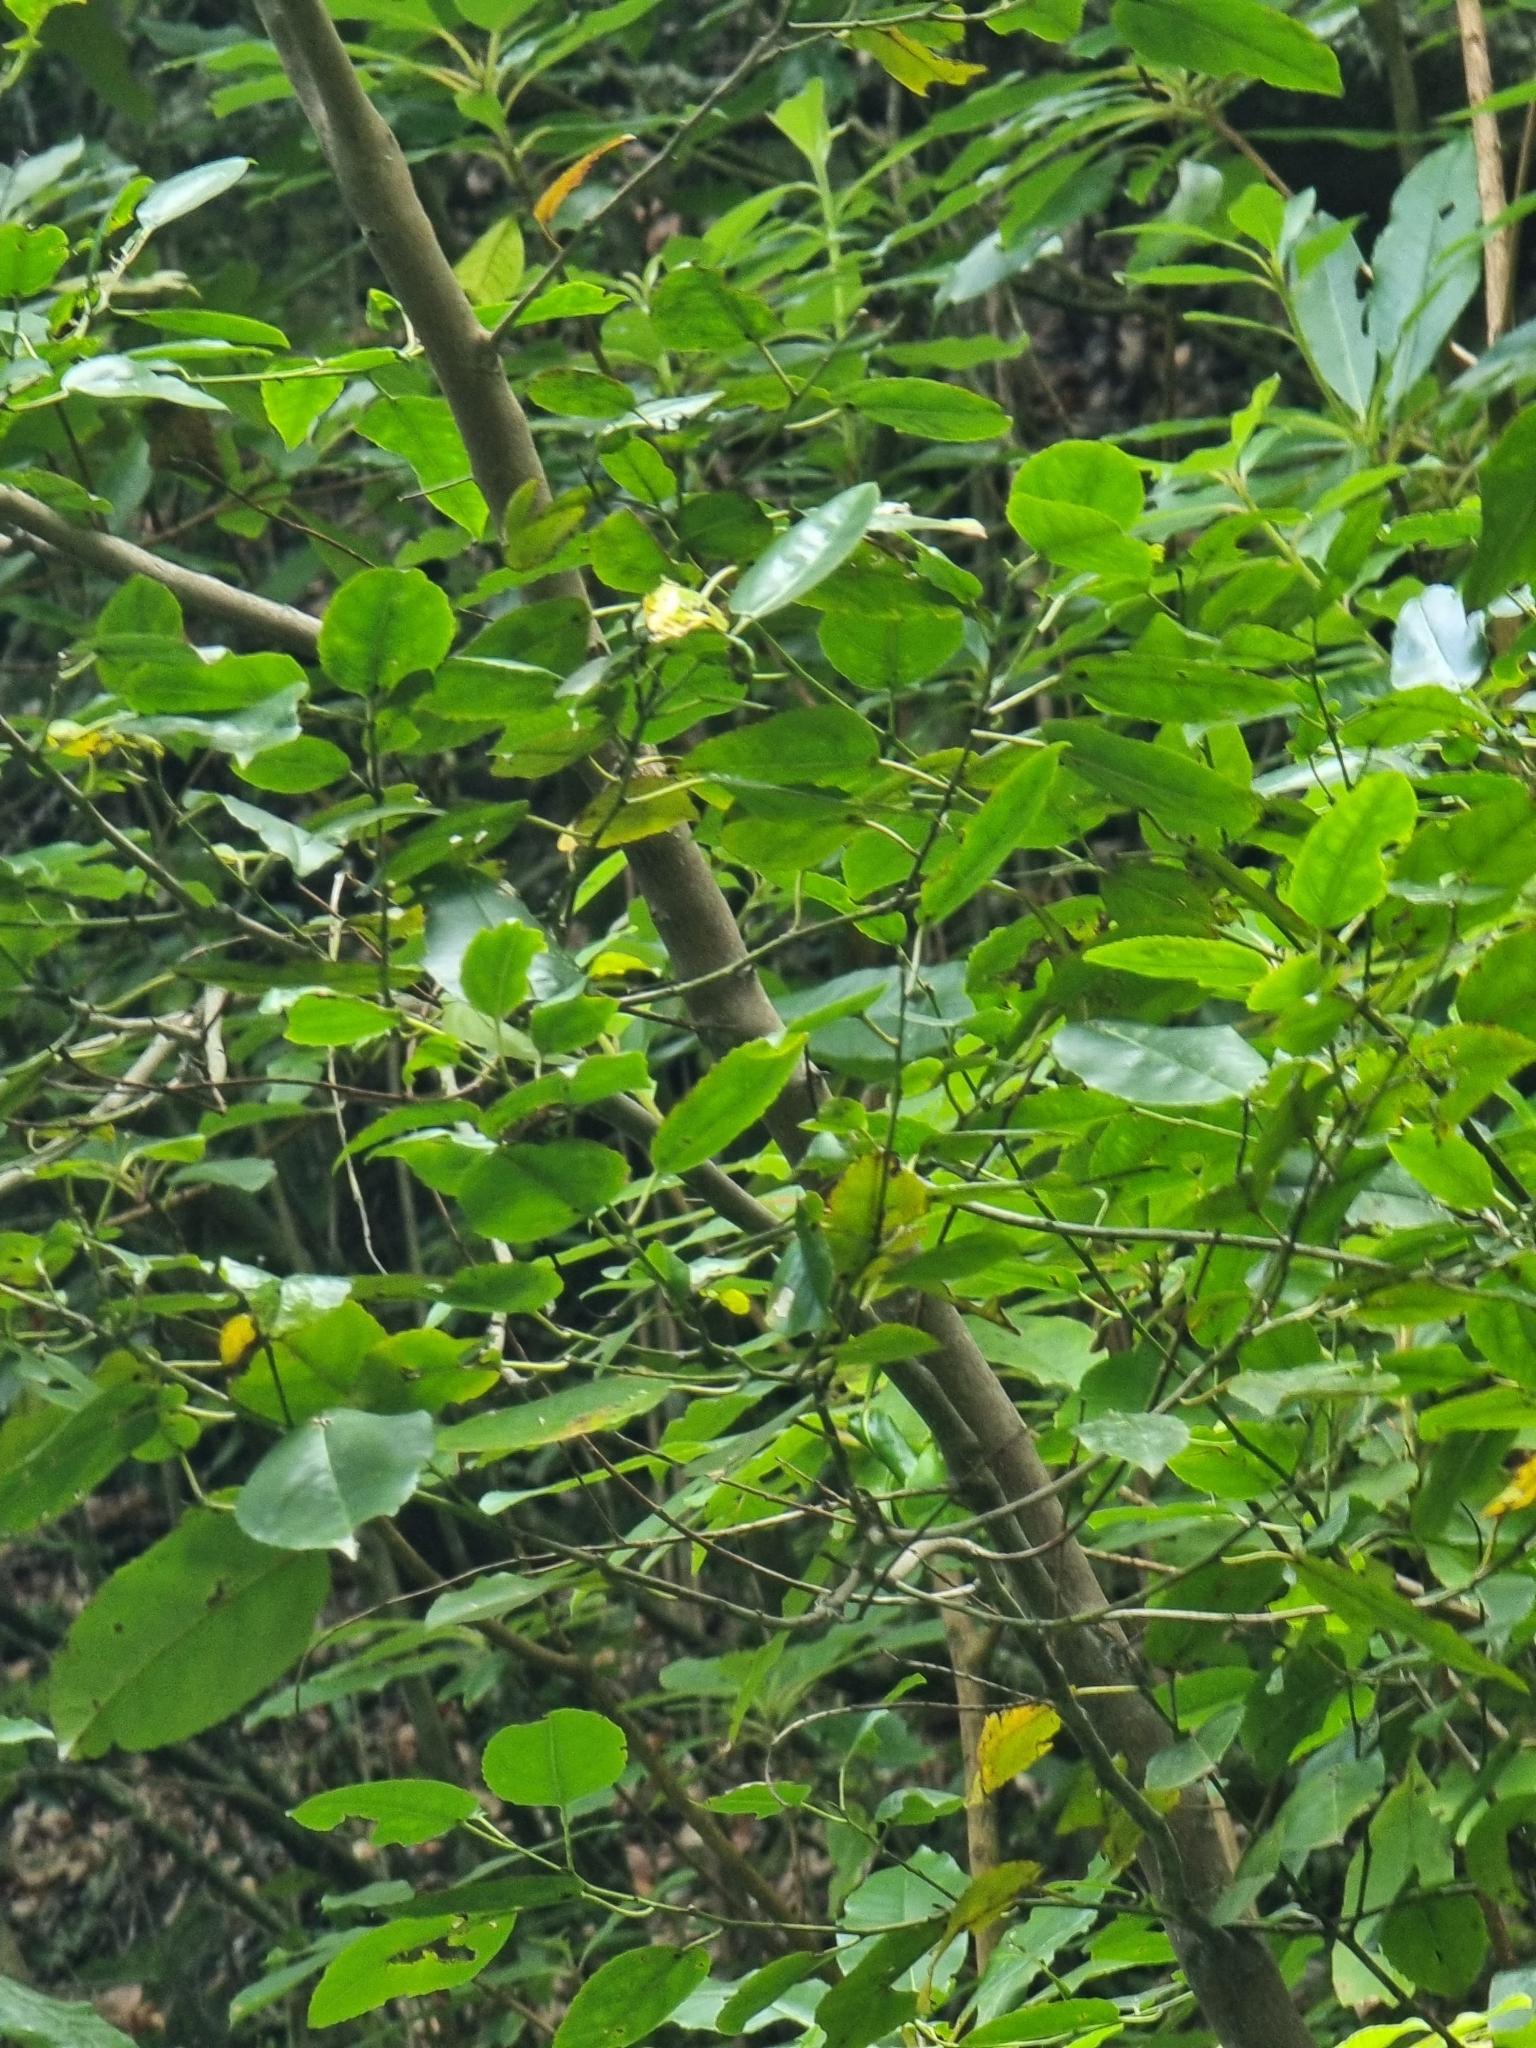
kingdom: Plantae
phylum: Tracheophyta
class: Magnoliopsida
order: Rosales
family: Rhamnaceae
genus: Rhamnus
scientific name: Rhamnus glandulosa
